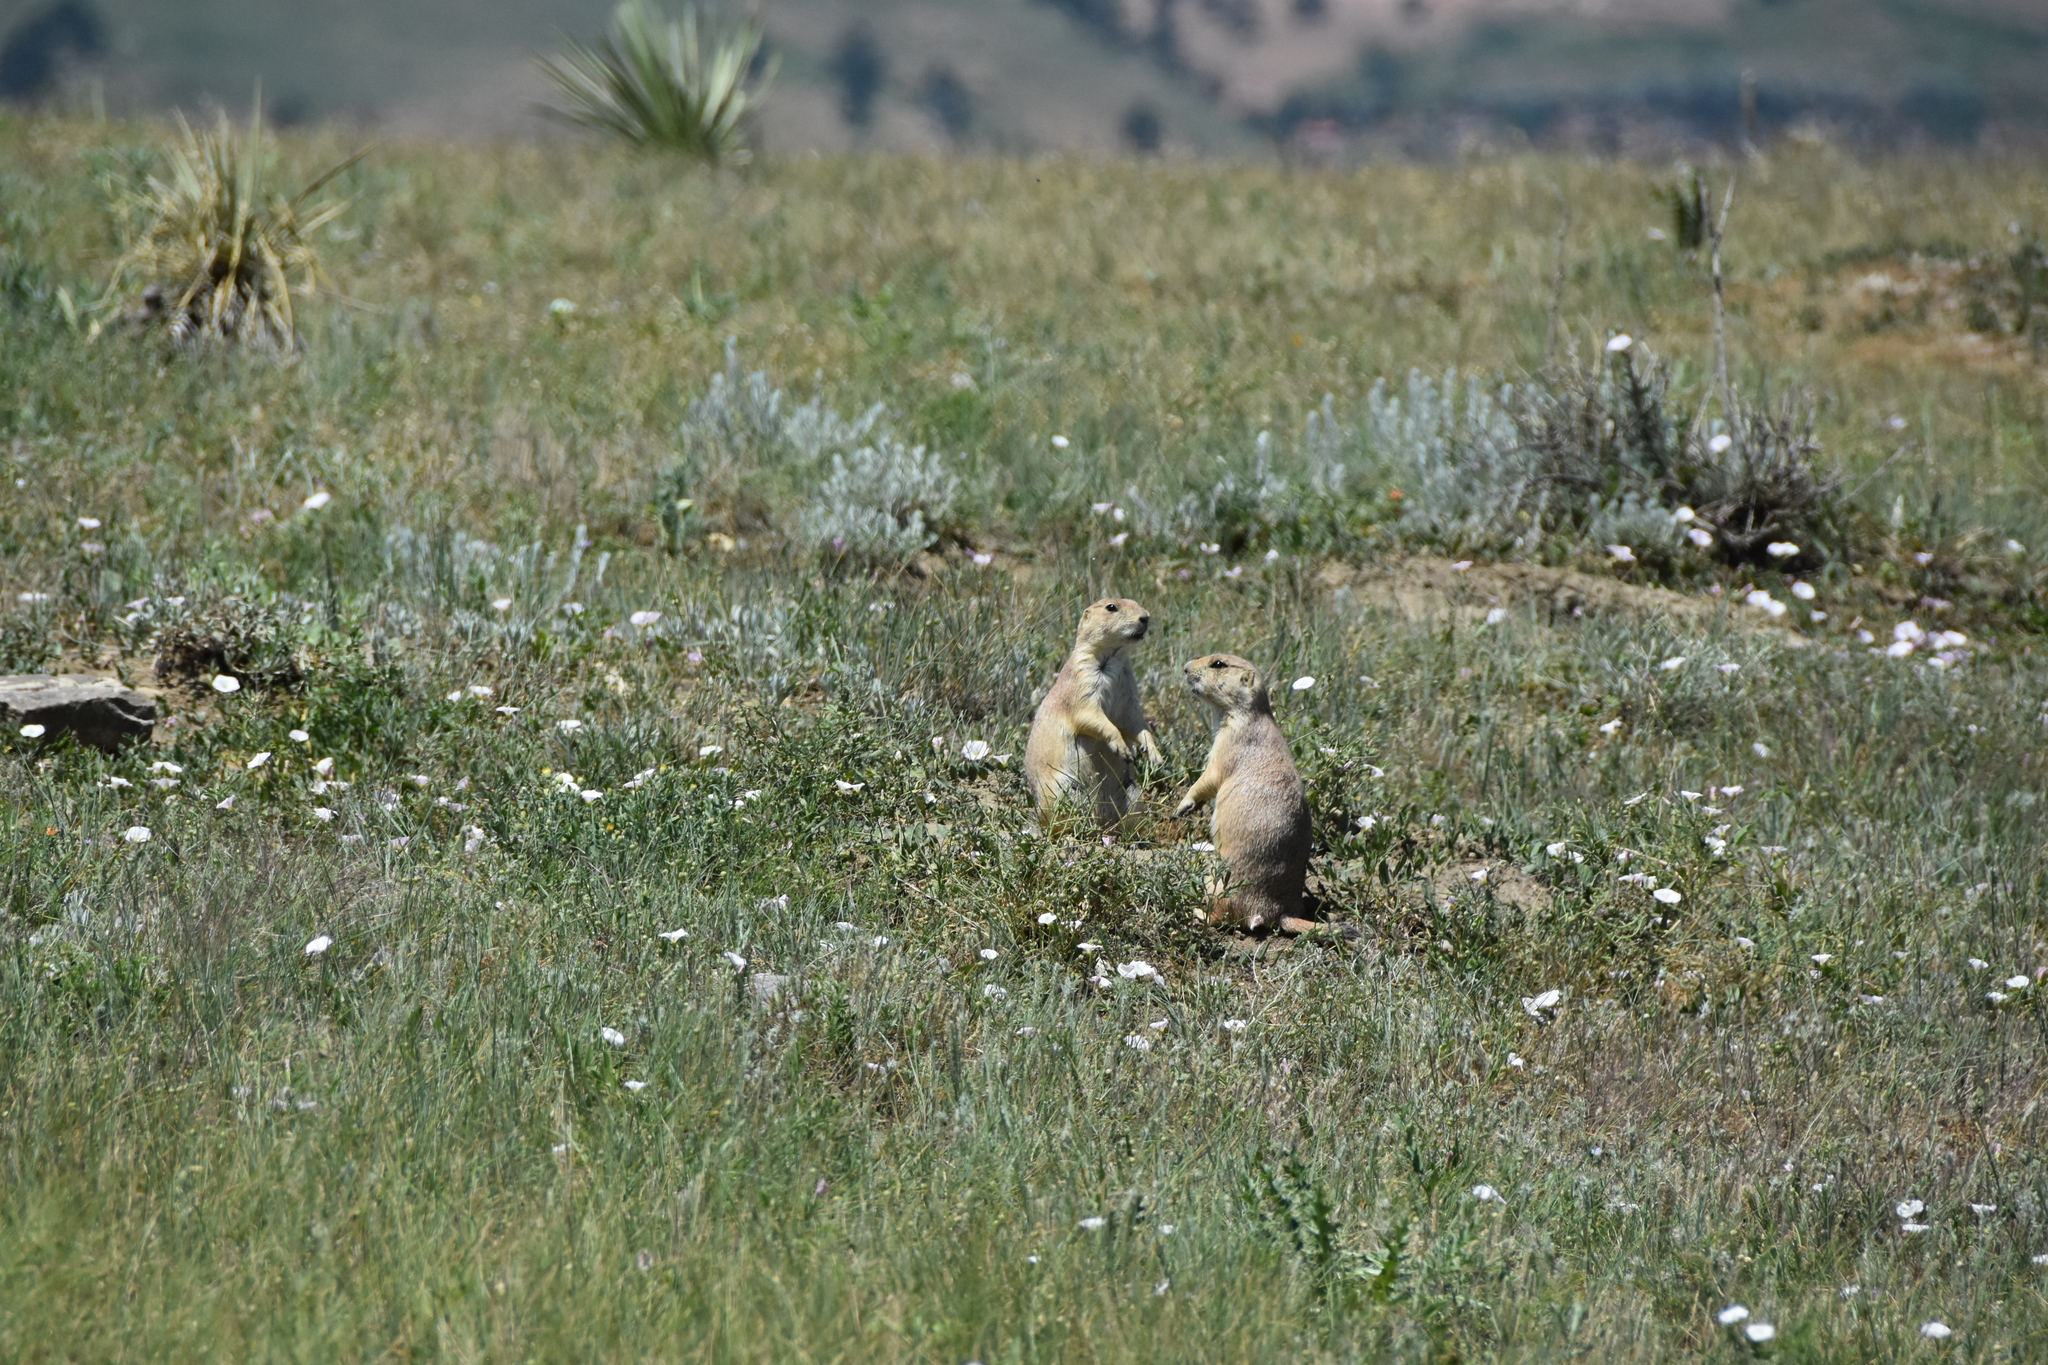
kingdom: Animalia
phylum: Chordata
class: Mammalia
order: Rodentia
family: Sciuridae
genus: Cynomys
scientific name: Cynomys ludovicianus
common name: Black-tailed prairie dog
